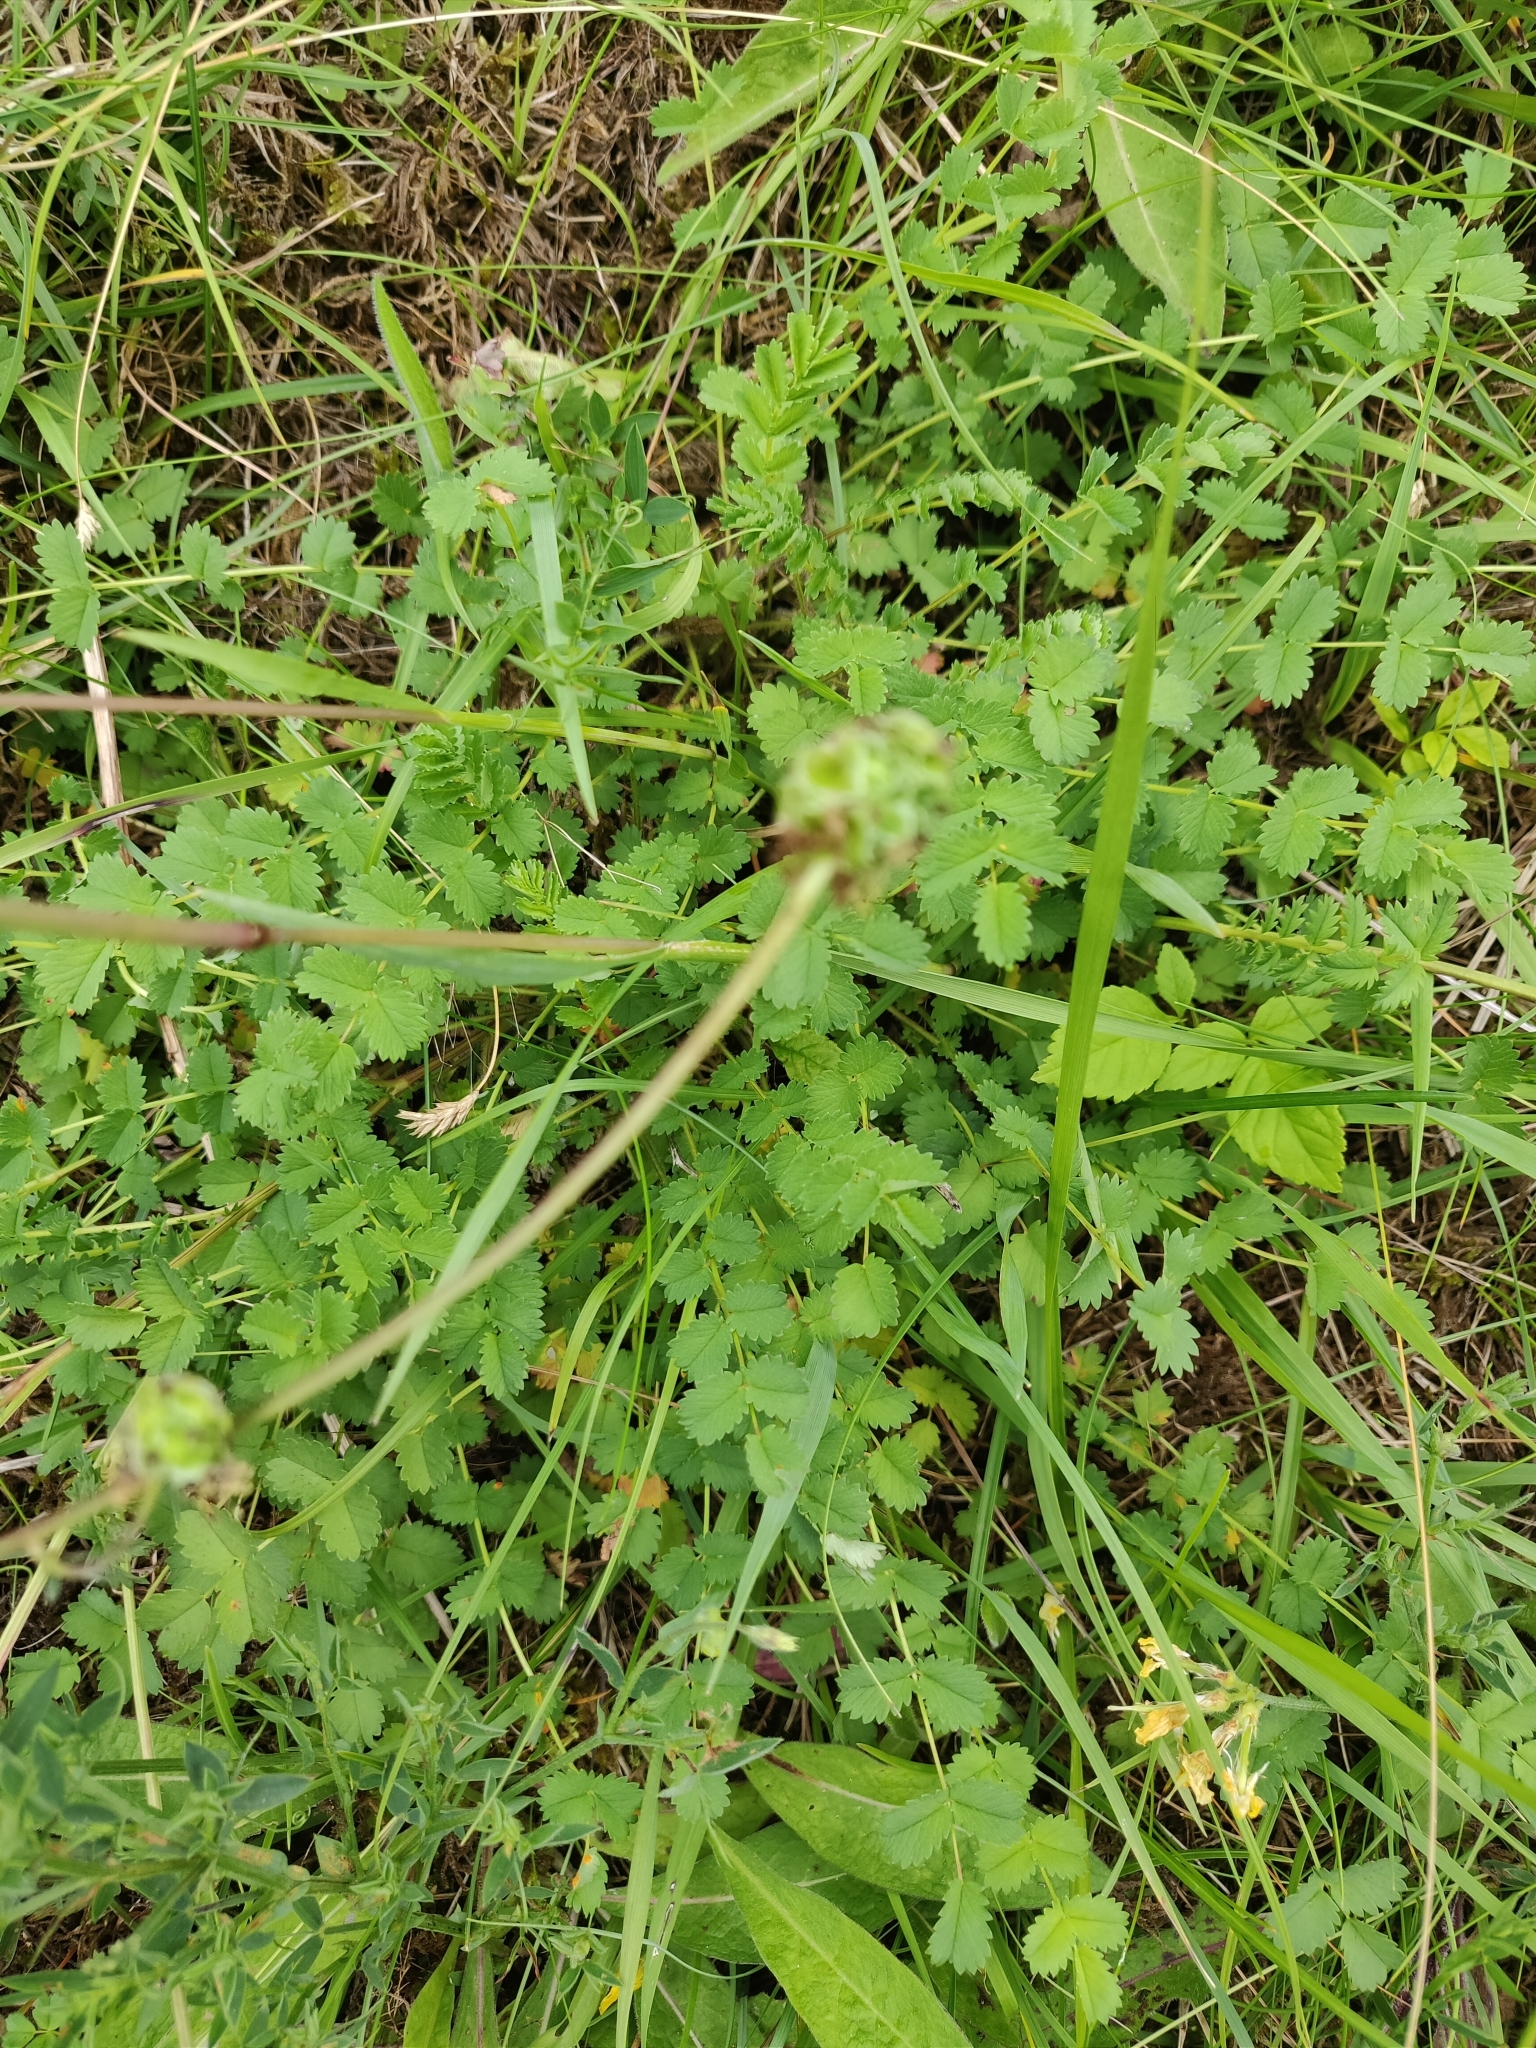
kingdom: Plantae
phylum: Tracheophyta
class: Magnoliopsida
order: Rosales
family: Rosaceae
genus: Poterium
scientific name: Poterium sanguisorba
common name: Salad burnet
